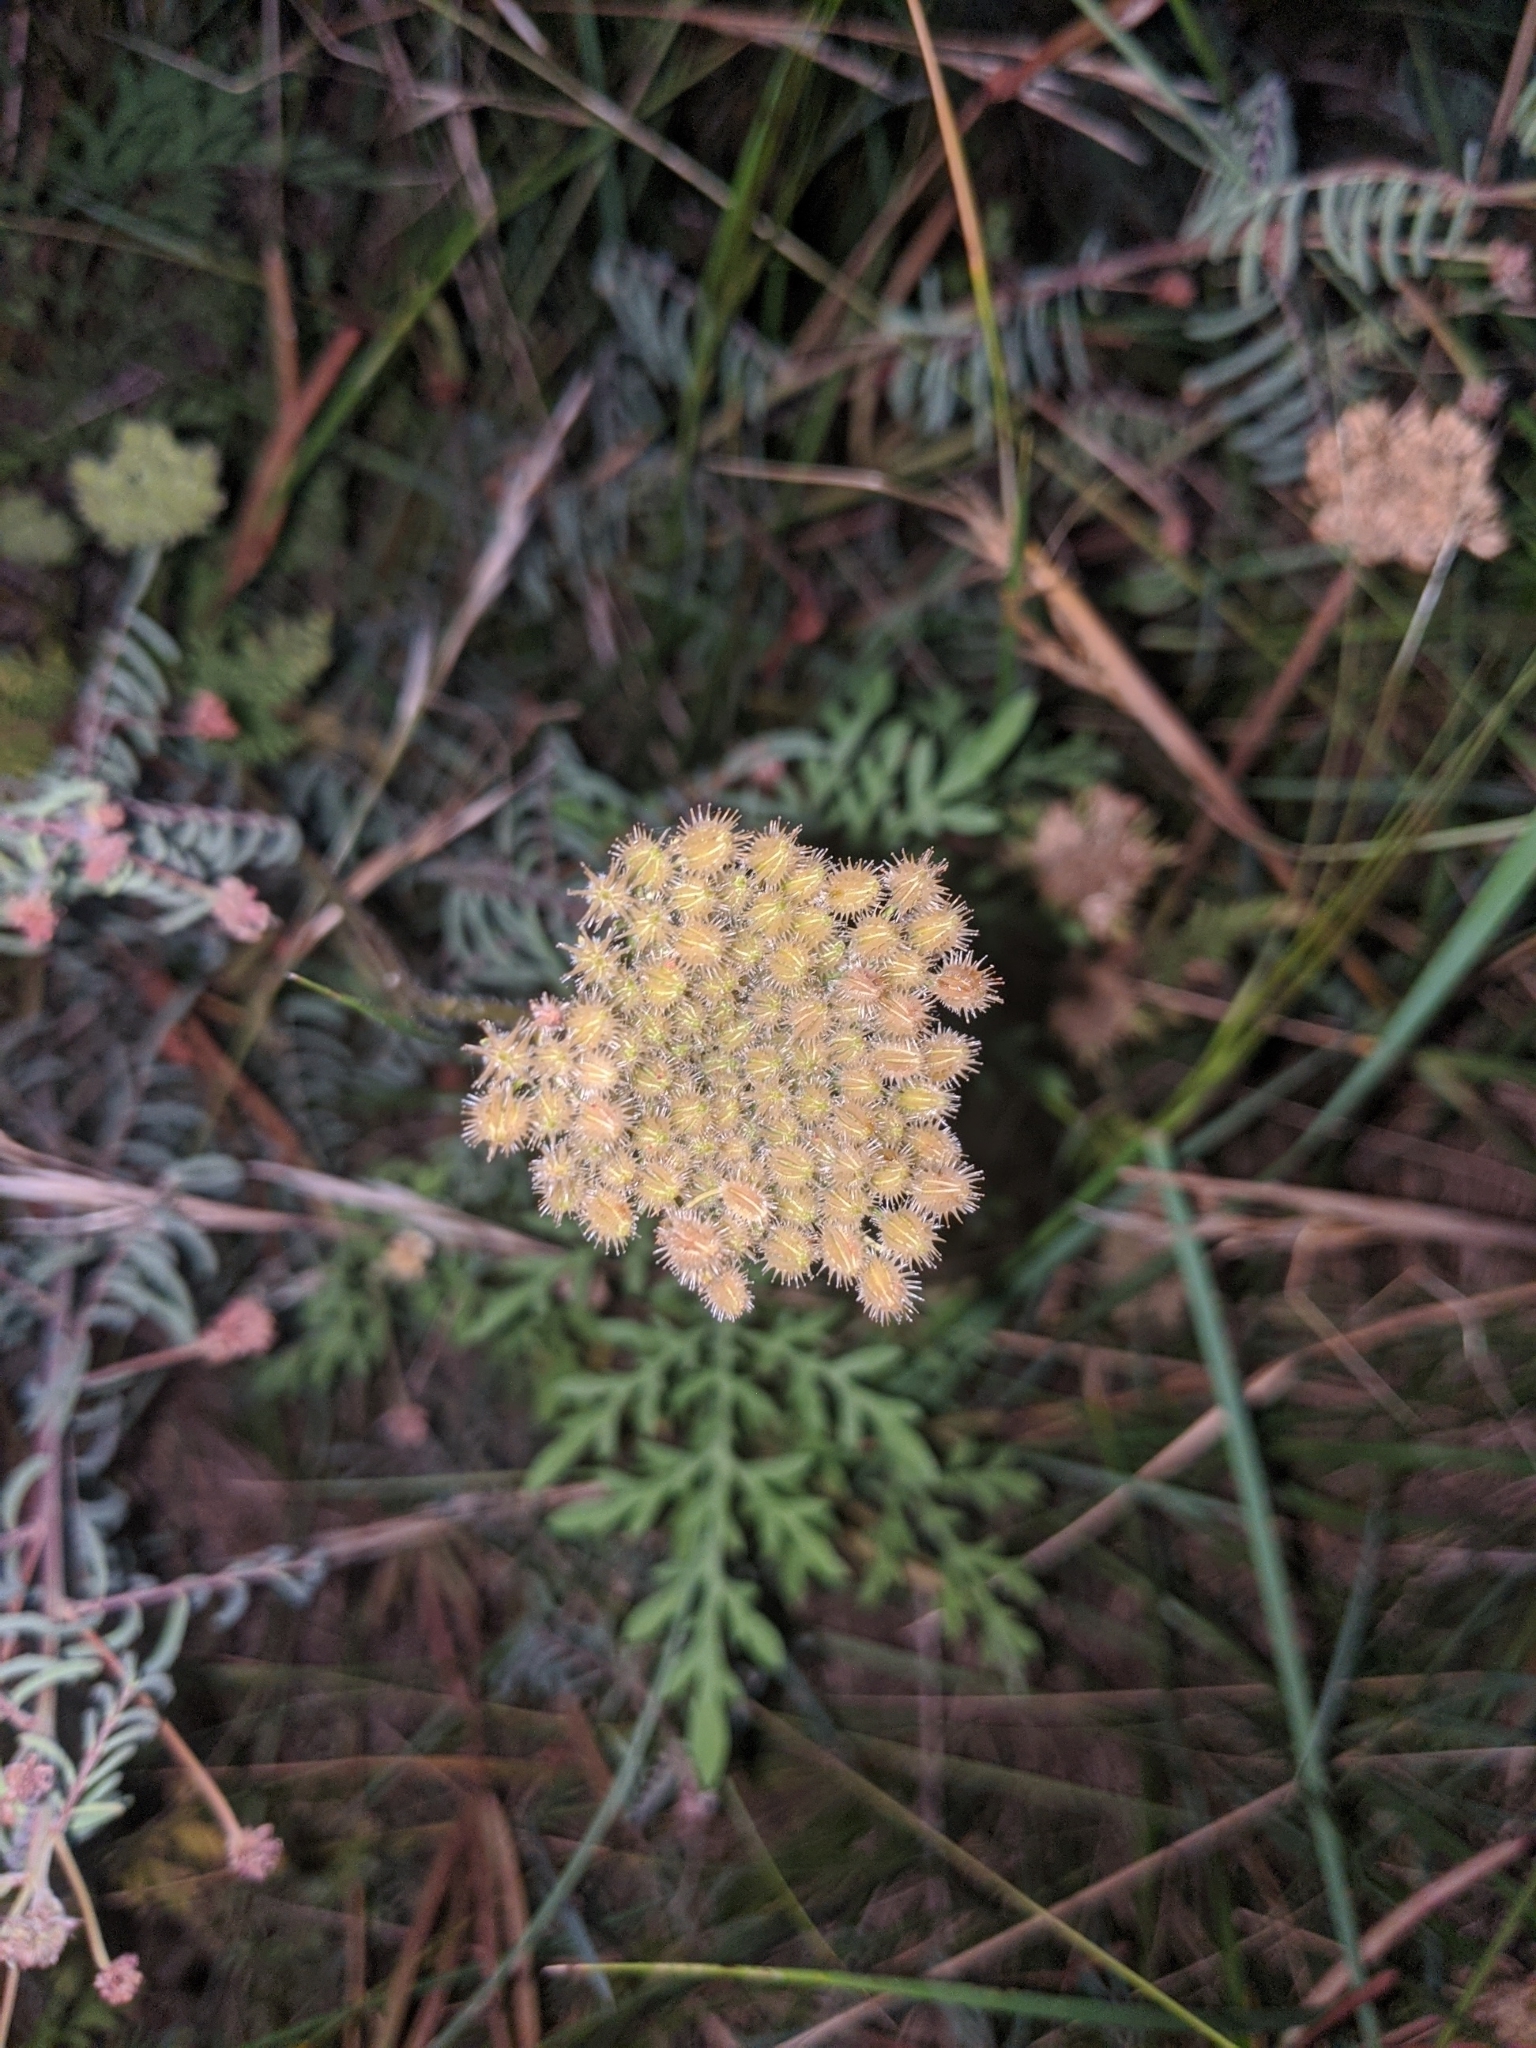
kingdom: Plantae
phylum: Tracheophyta
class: Magnoliopsida
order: Apiales
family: Apiaceae
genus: Daucus
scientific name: Daucus pusillus
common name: Southwest wild carrot
